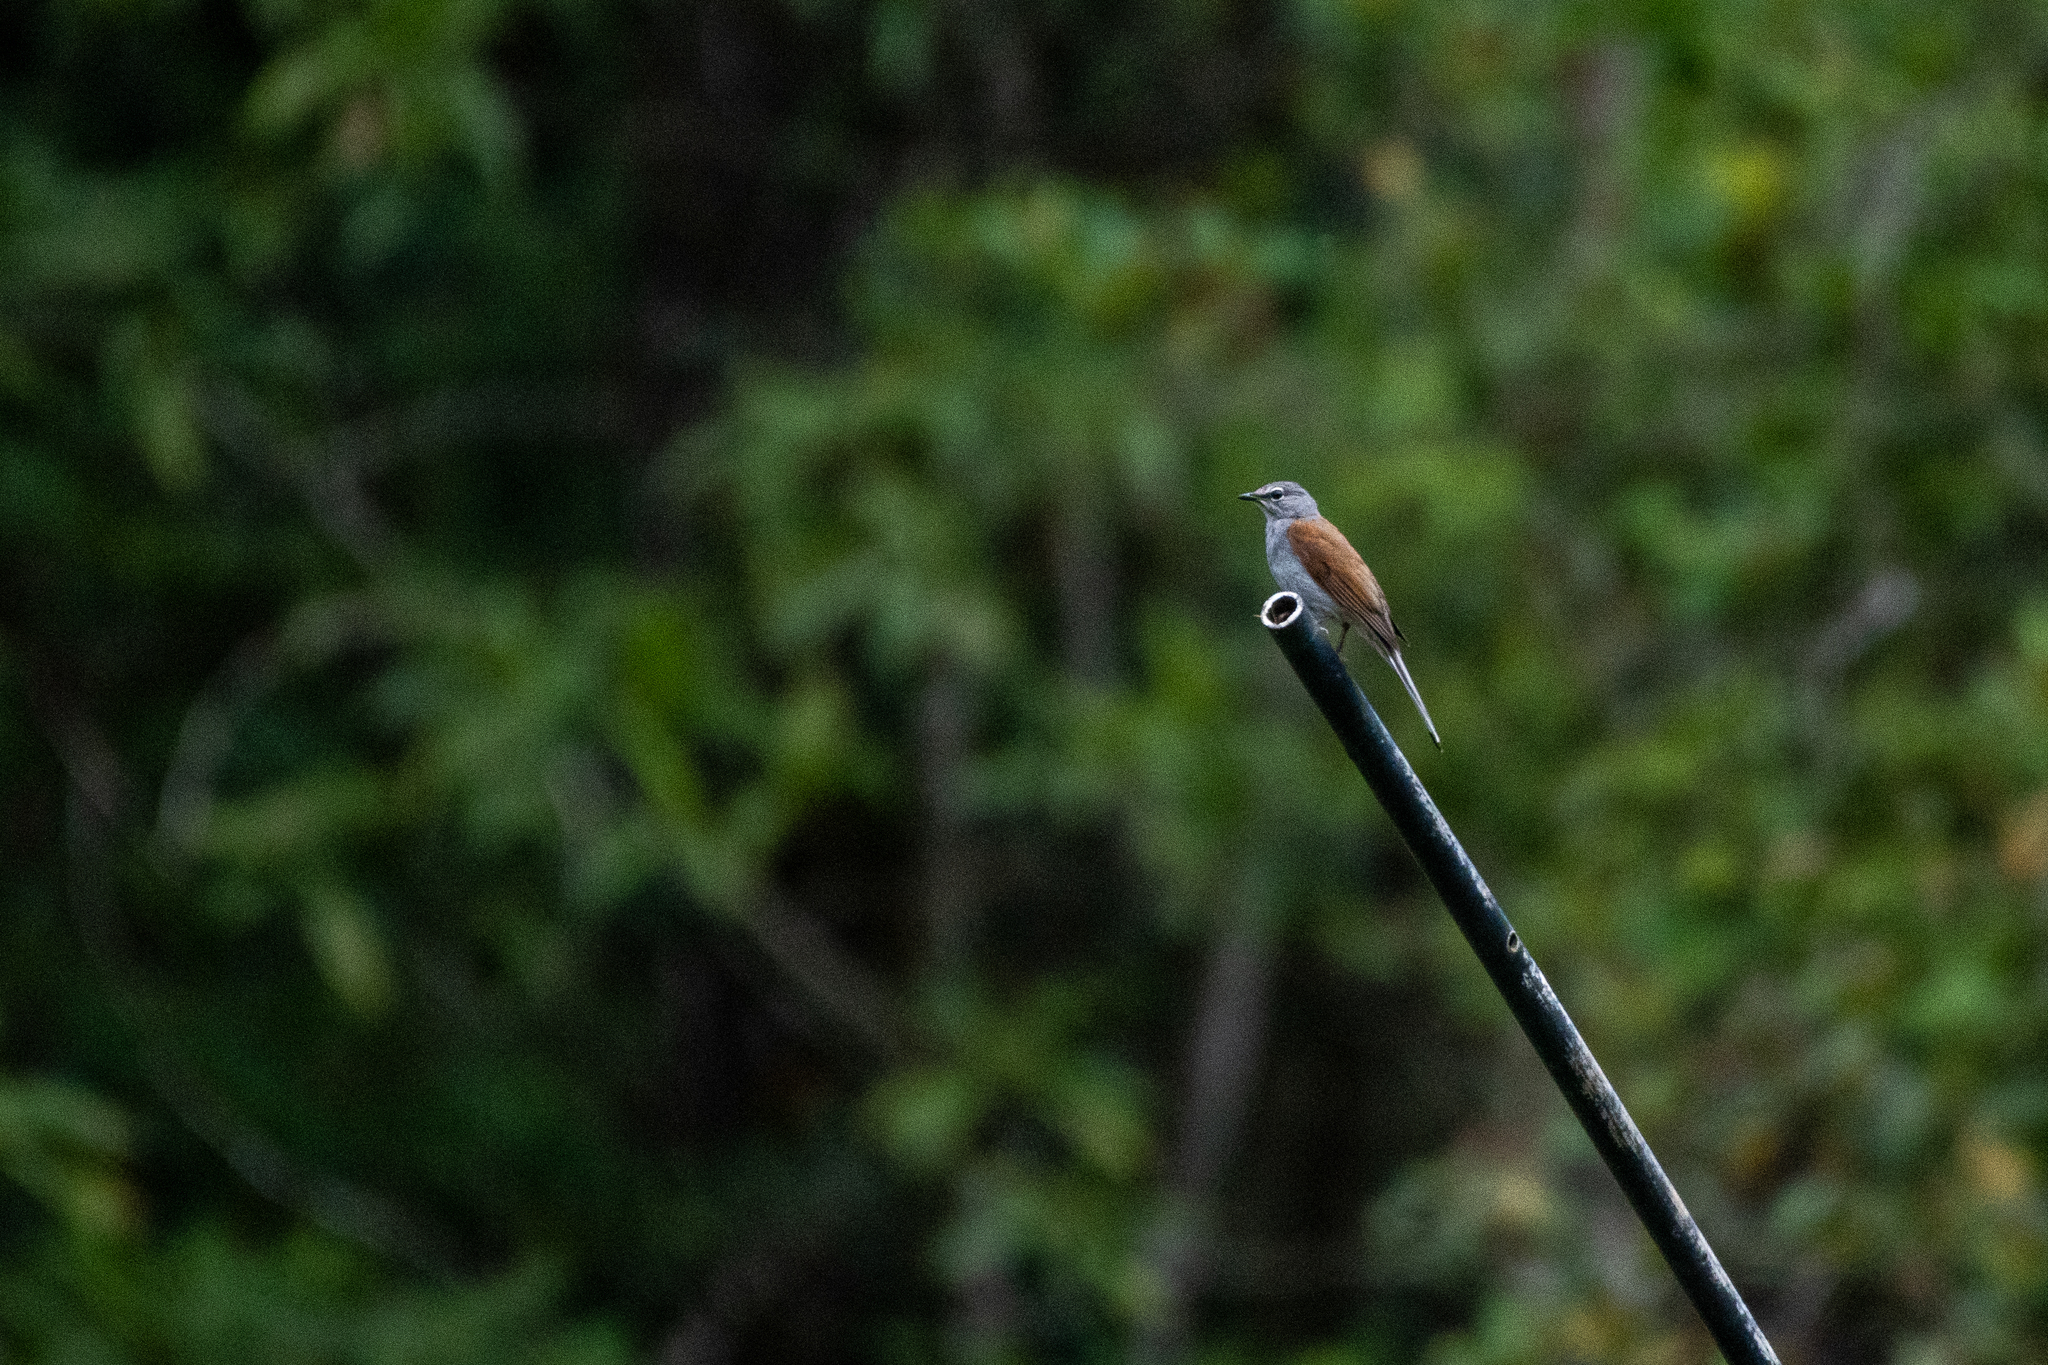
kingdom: Animalia
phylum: Chordata
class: Aves
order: Passeriformes
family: Turdidae
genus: Myadestes
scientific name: Myadestes occidentalis
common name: Brown-backed solitaire
